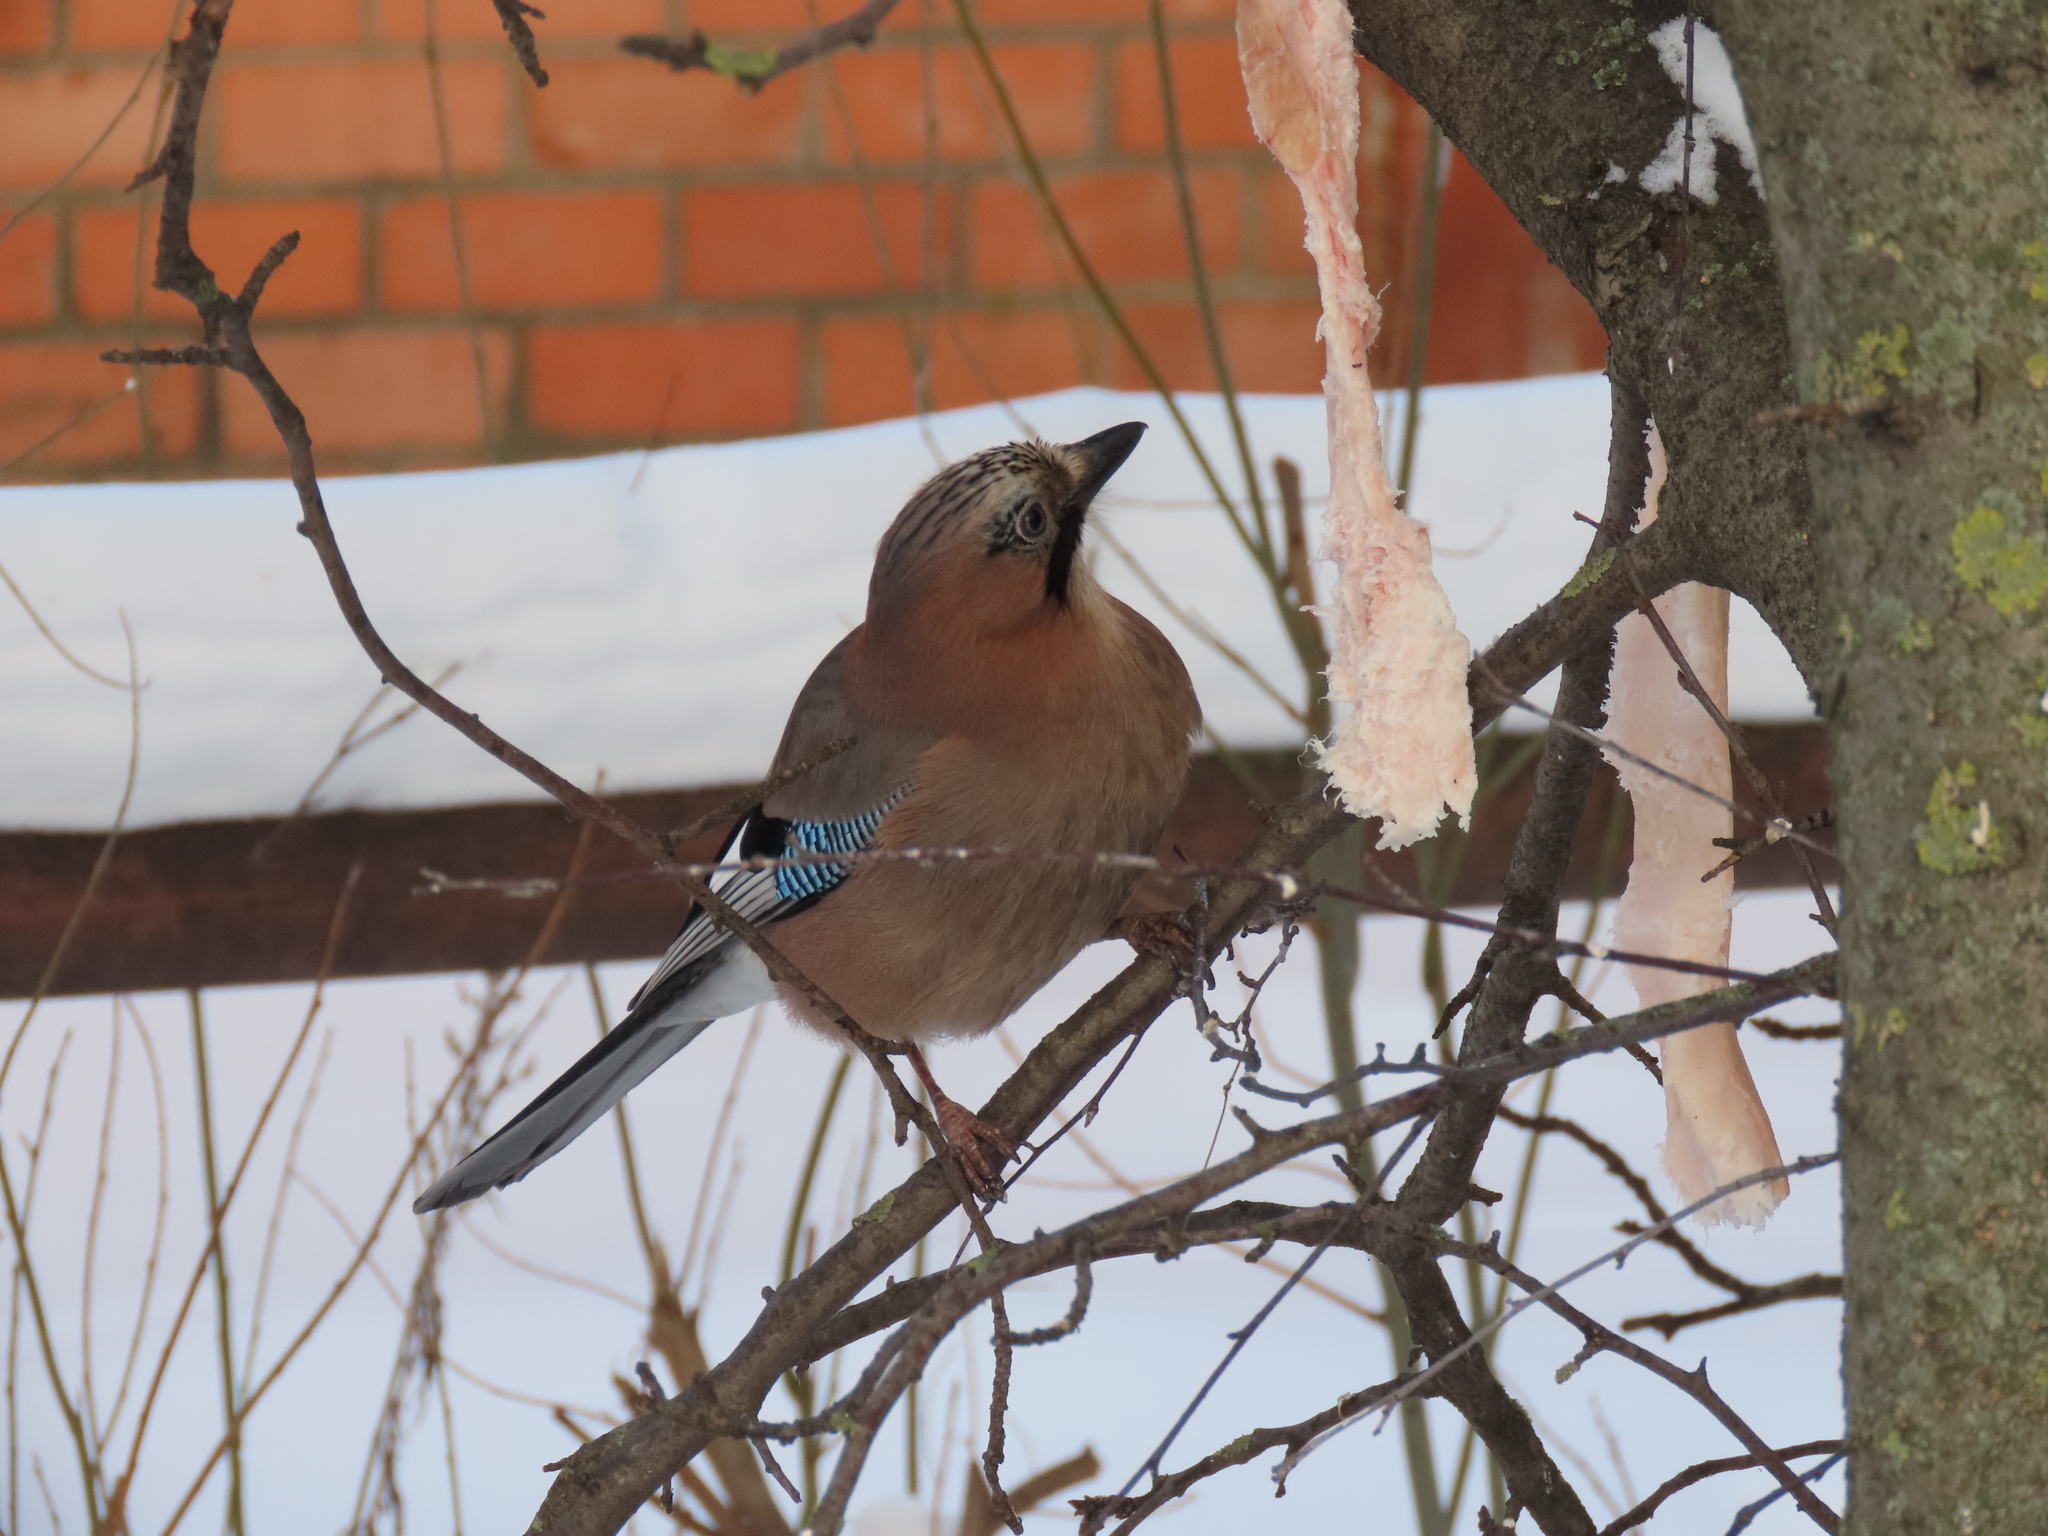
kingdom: Animalia
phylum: Chordata
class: Aves
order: Passeriformes
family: Corvidae
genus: Garrulus
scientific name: Garrulus glandarius
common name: Eurasian jay
